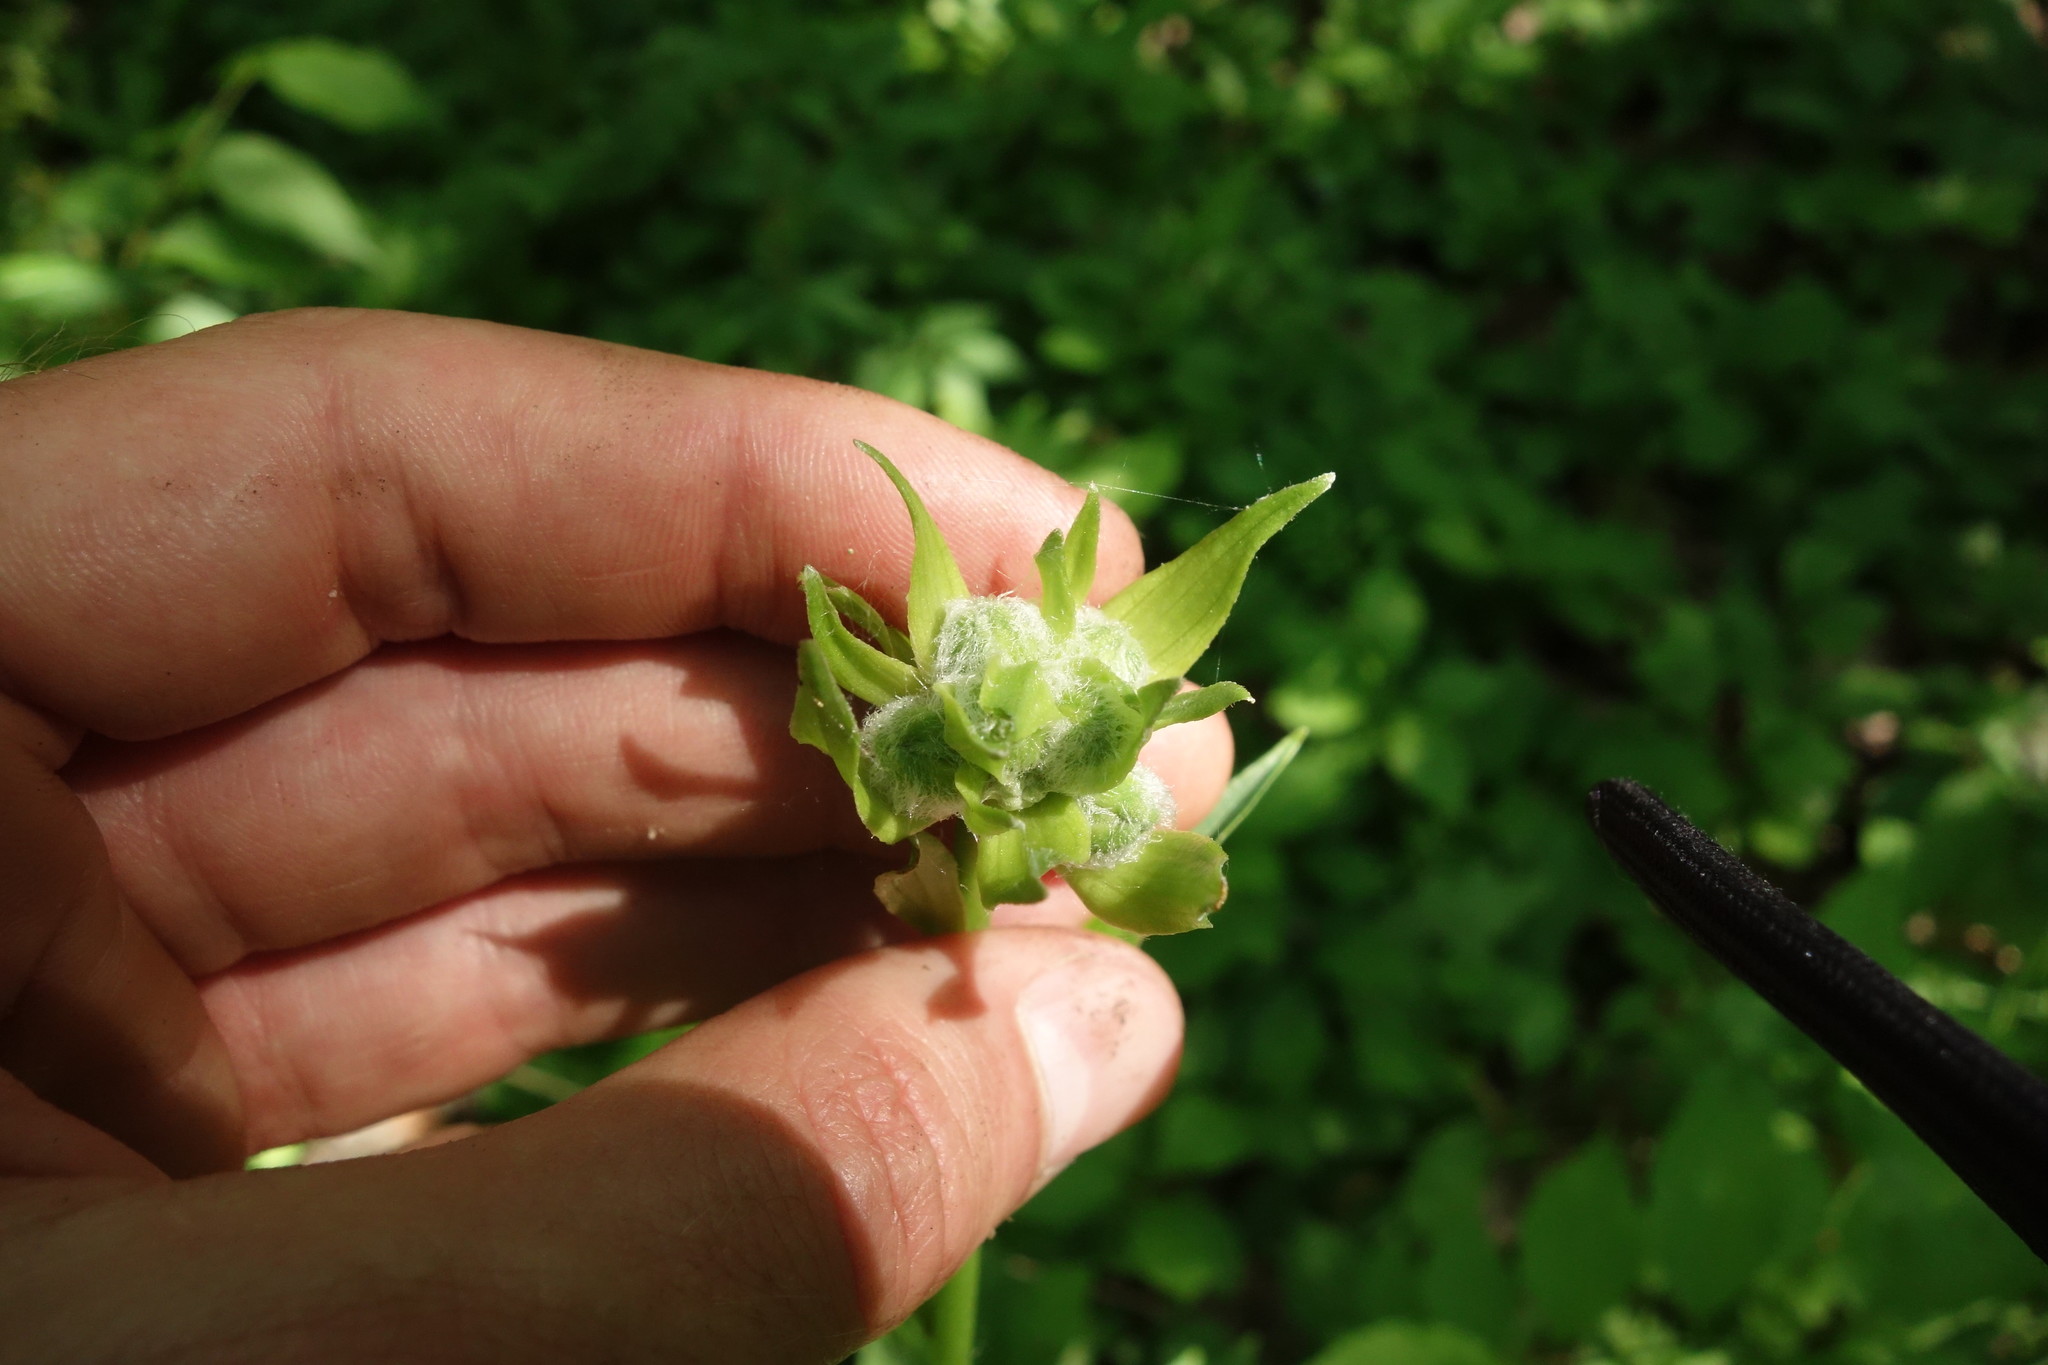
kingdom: Plantae
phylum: Tracheophyta
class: Liliopsida
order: Liliales
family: Liliaceae
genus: Lilium
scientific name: Lilium martagon
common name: Martagon lily
